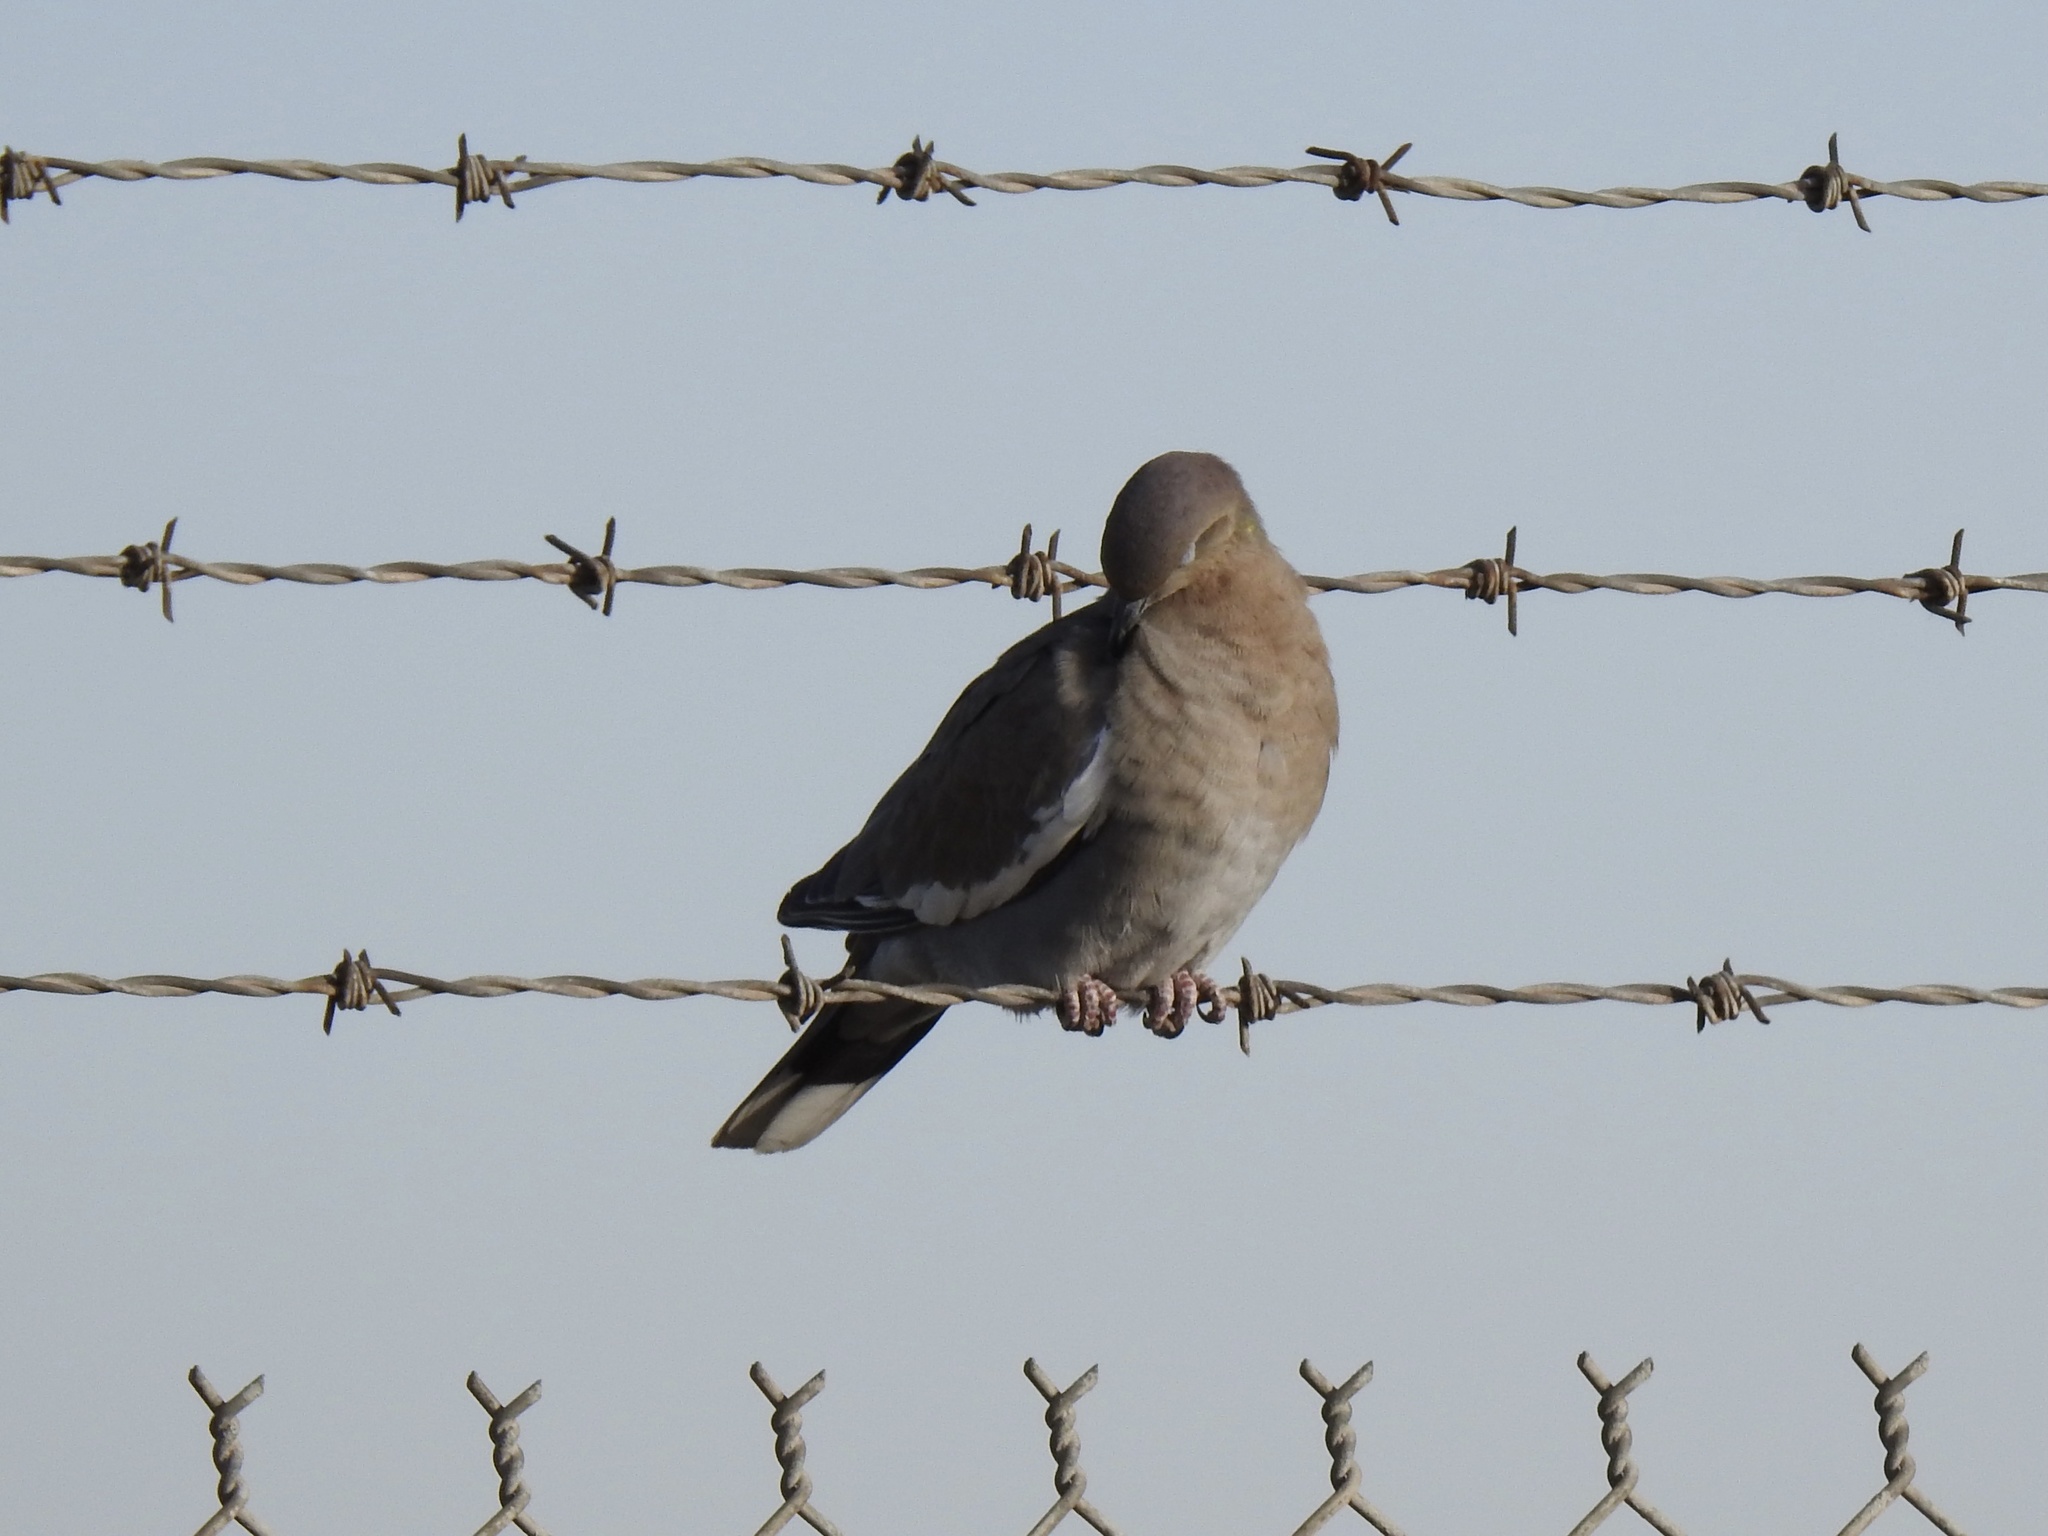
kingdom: Animalia
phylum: Chordata
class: Aves
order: Columbiformes
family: Columbidae
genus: Zenaida
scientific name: Zenaida asiatica
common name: White-winged dove
